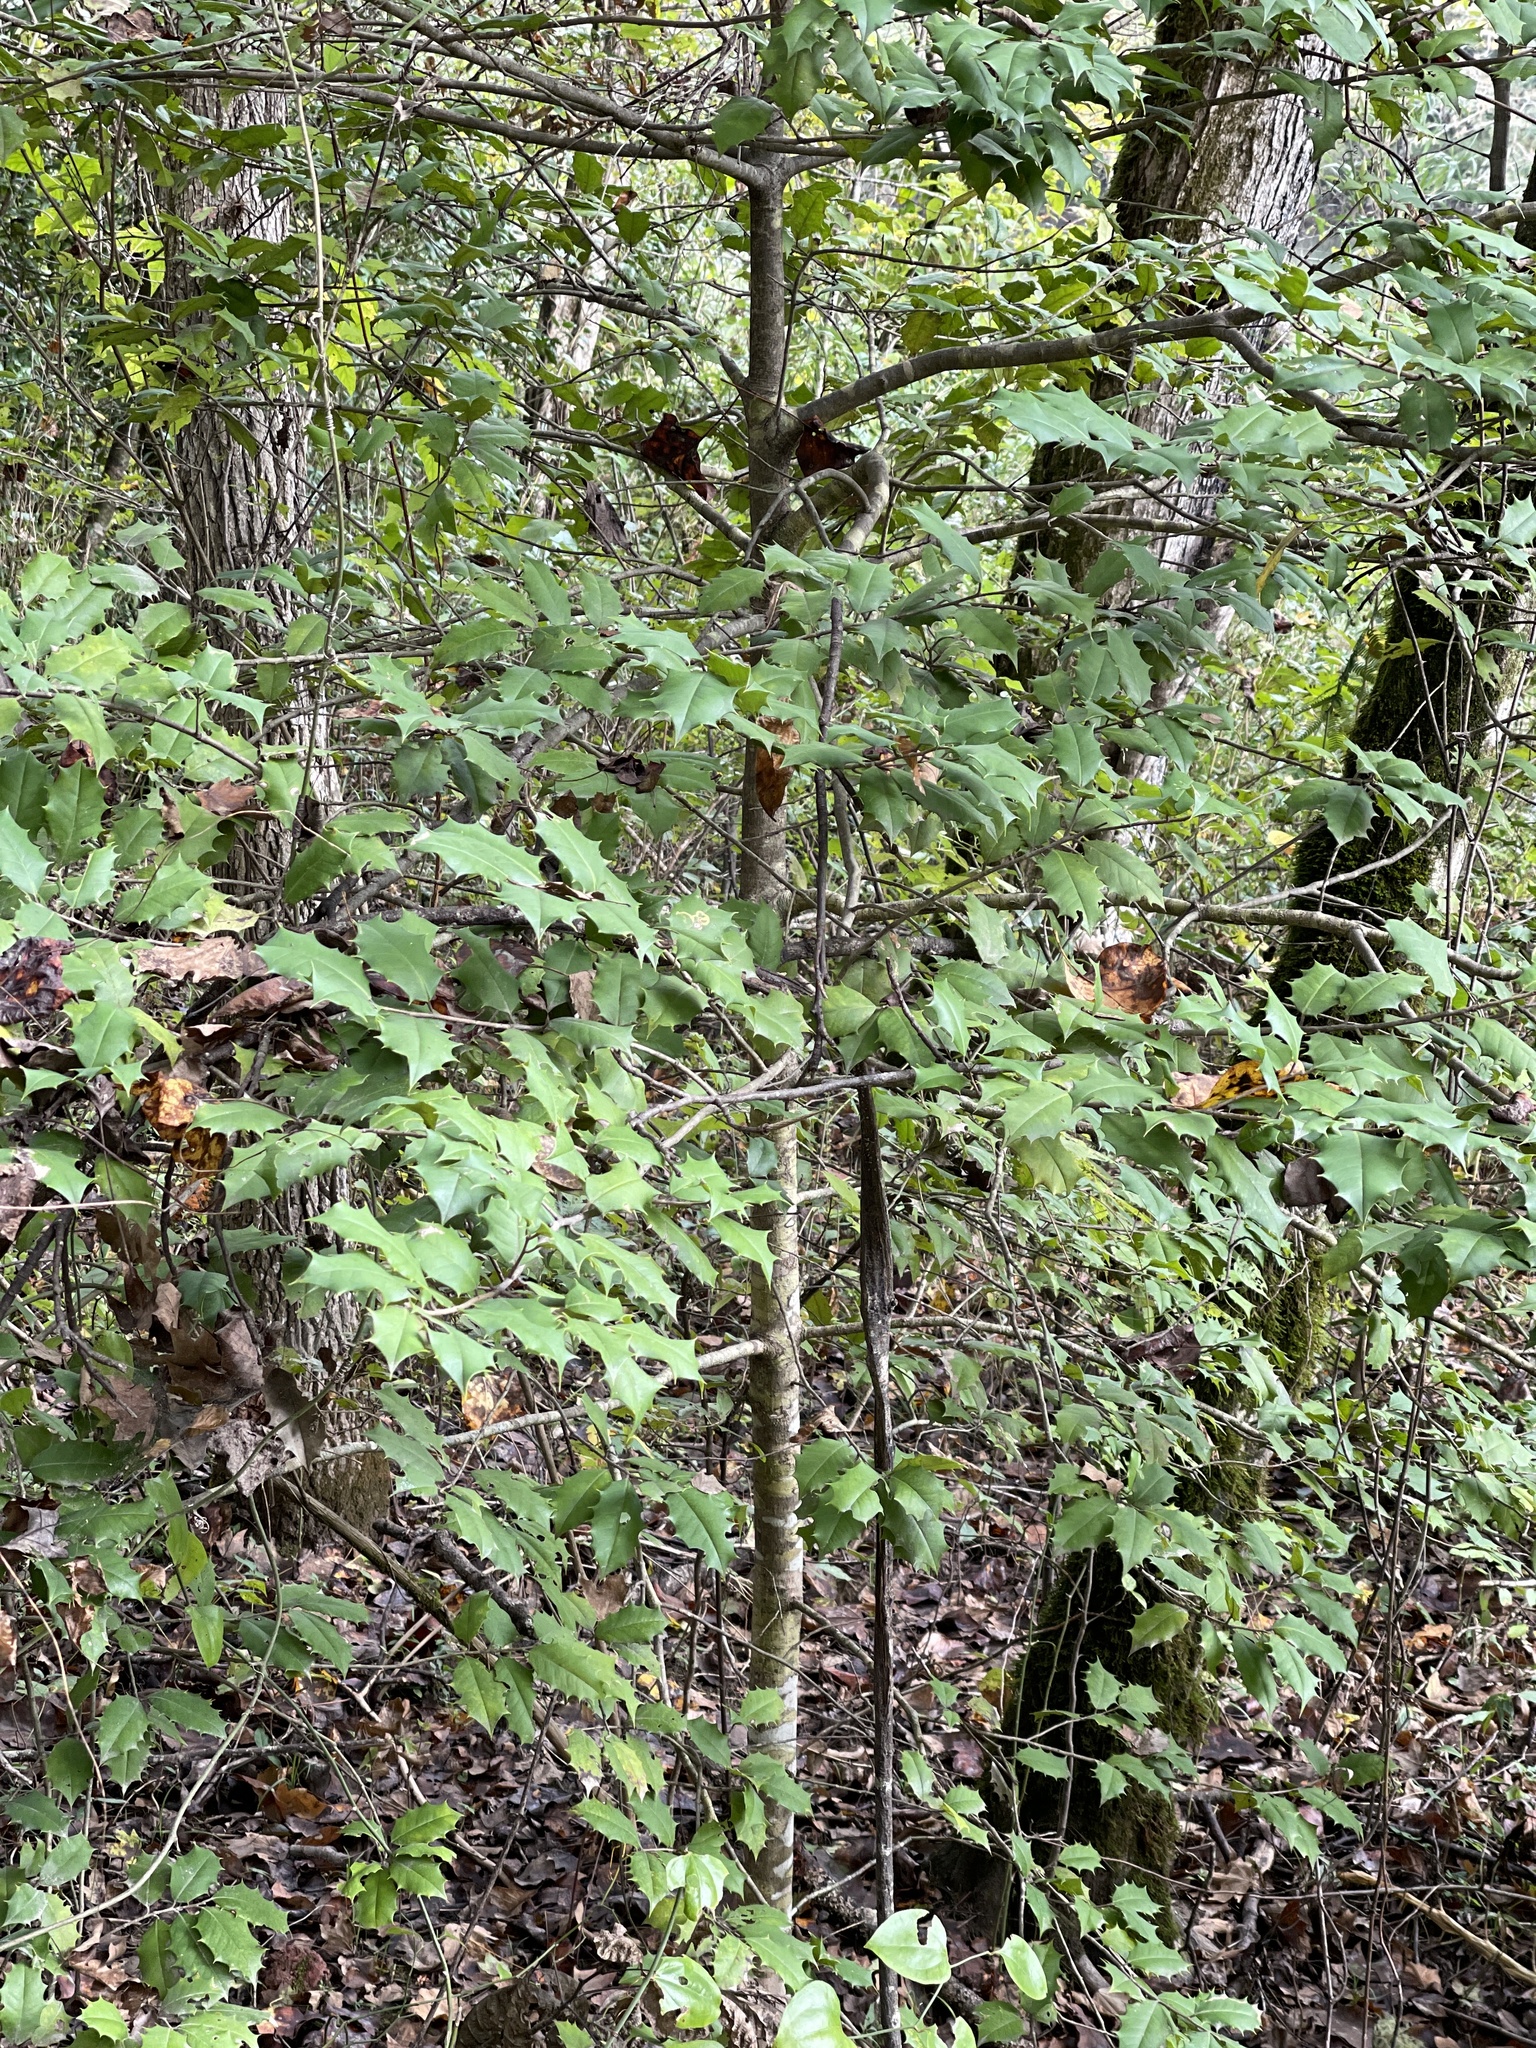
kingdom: Plantae
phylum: Tracheophyta
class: Magnoliopsida
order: Aquifoliales
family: Aquifoliaceae
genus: Ilex
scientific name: Ilex opaca
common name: American holly
